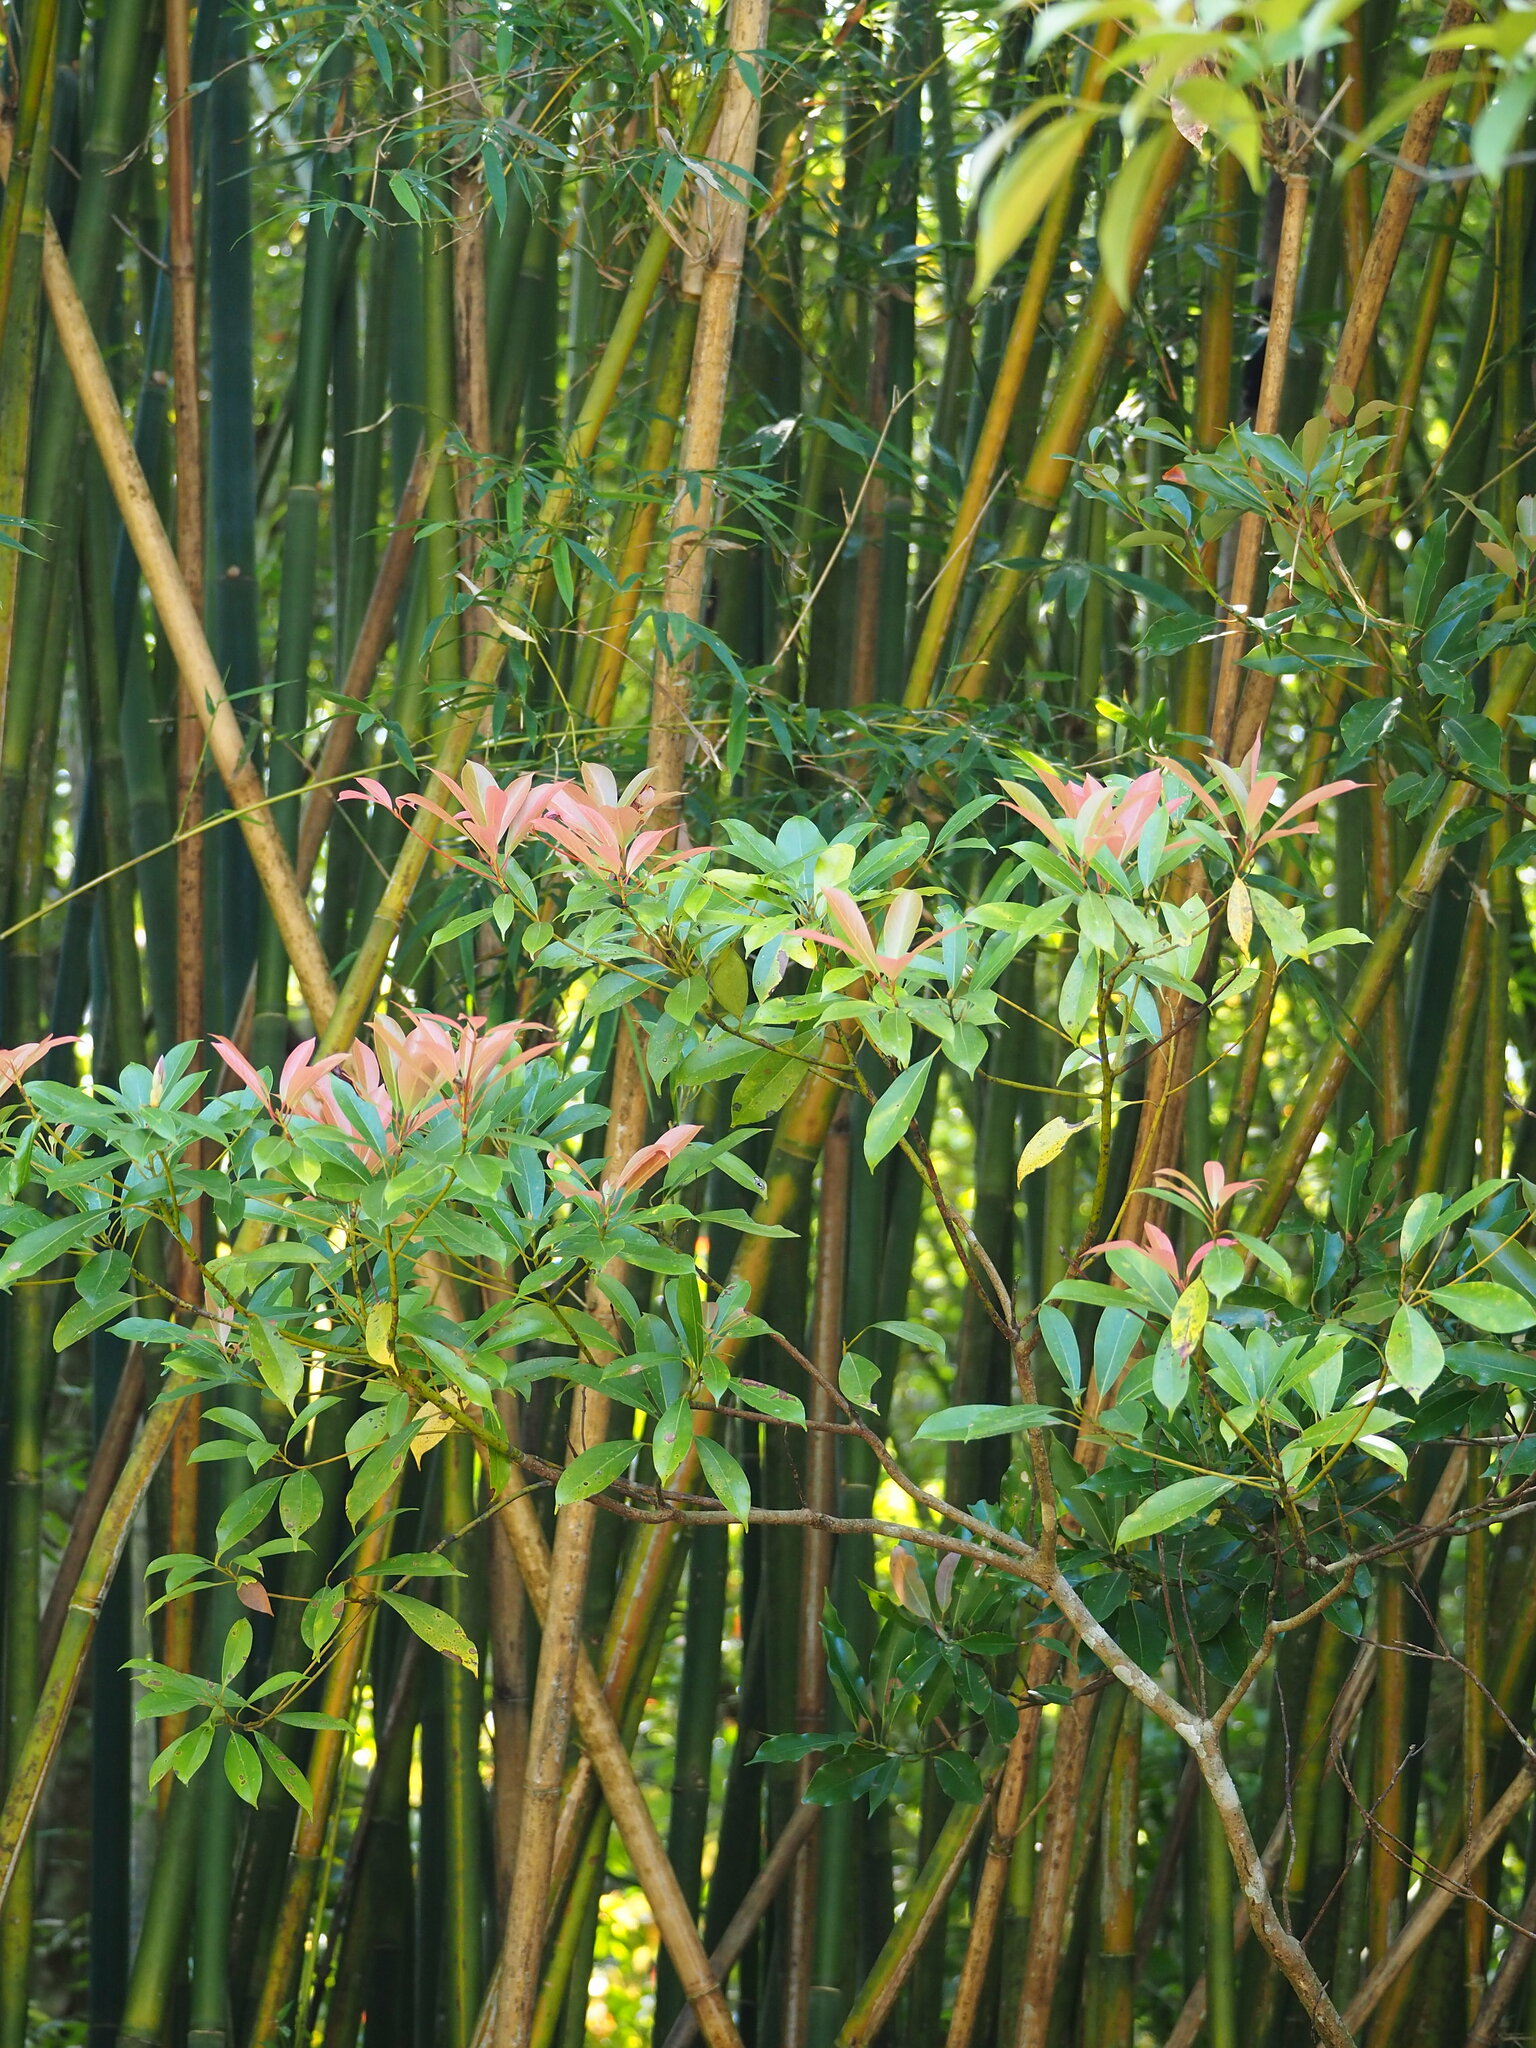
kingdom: Plantae
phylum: Tracheophyta
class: Magnoliopsida
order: Laurales
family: Lauraceae
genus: Machilus
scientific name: Machilus thunbergii
